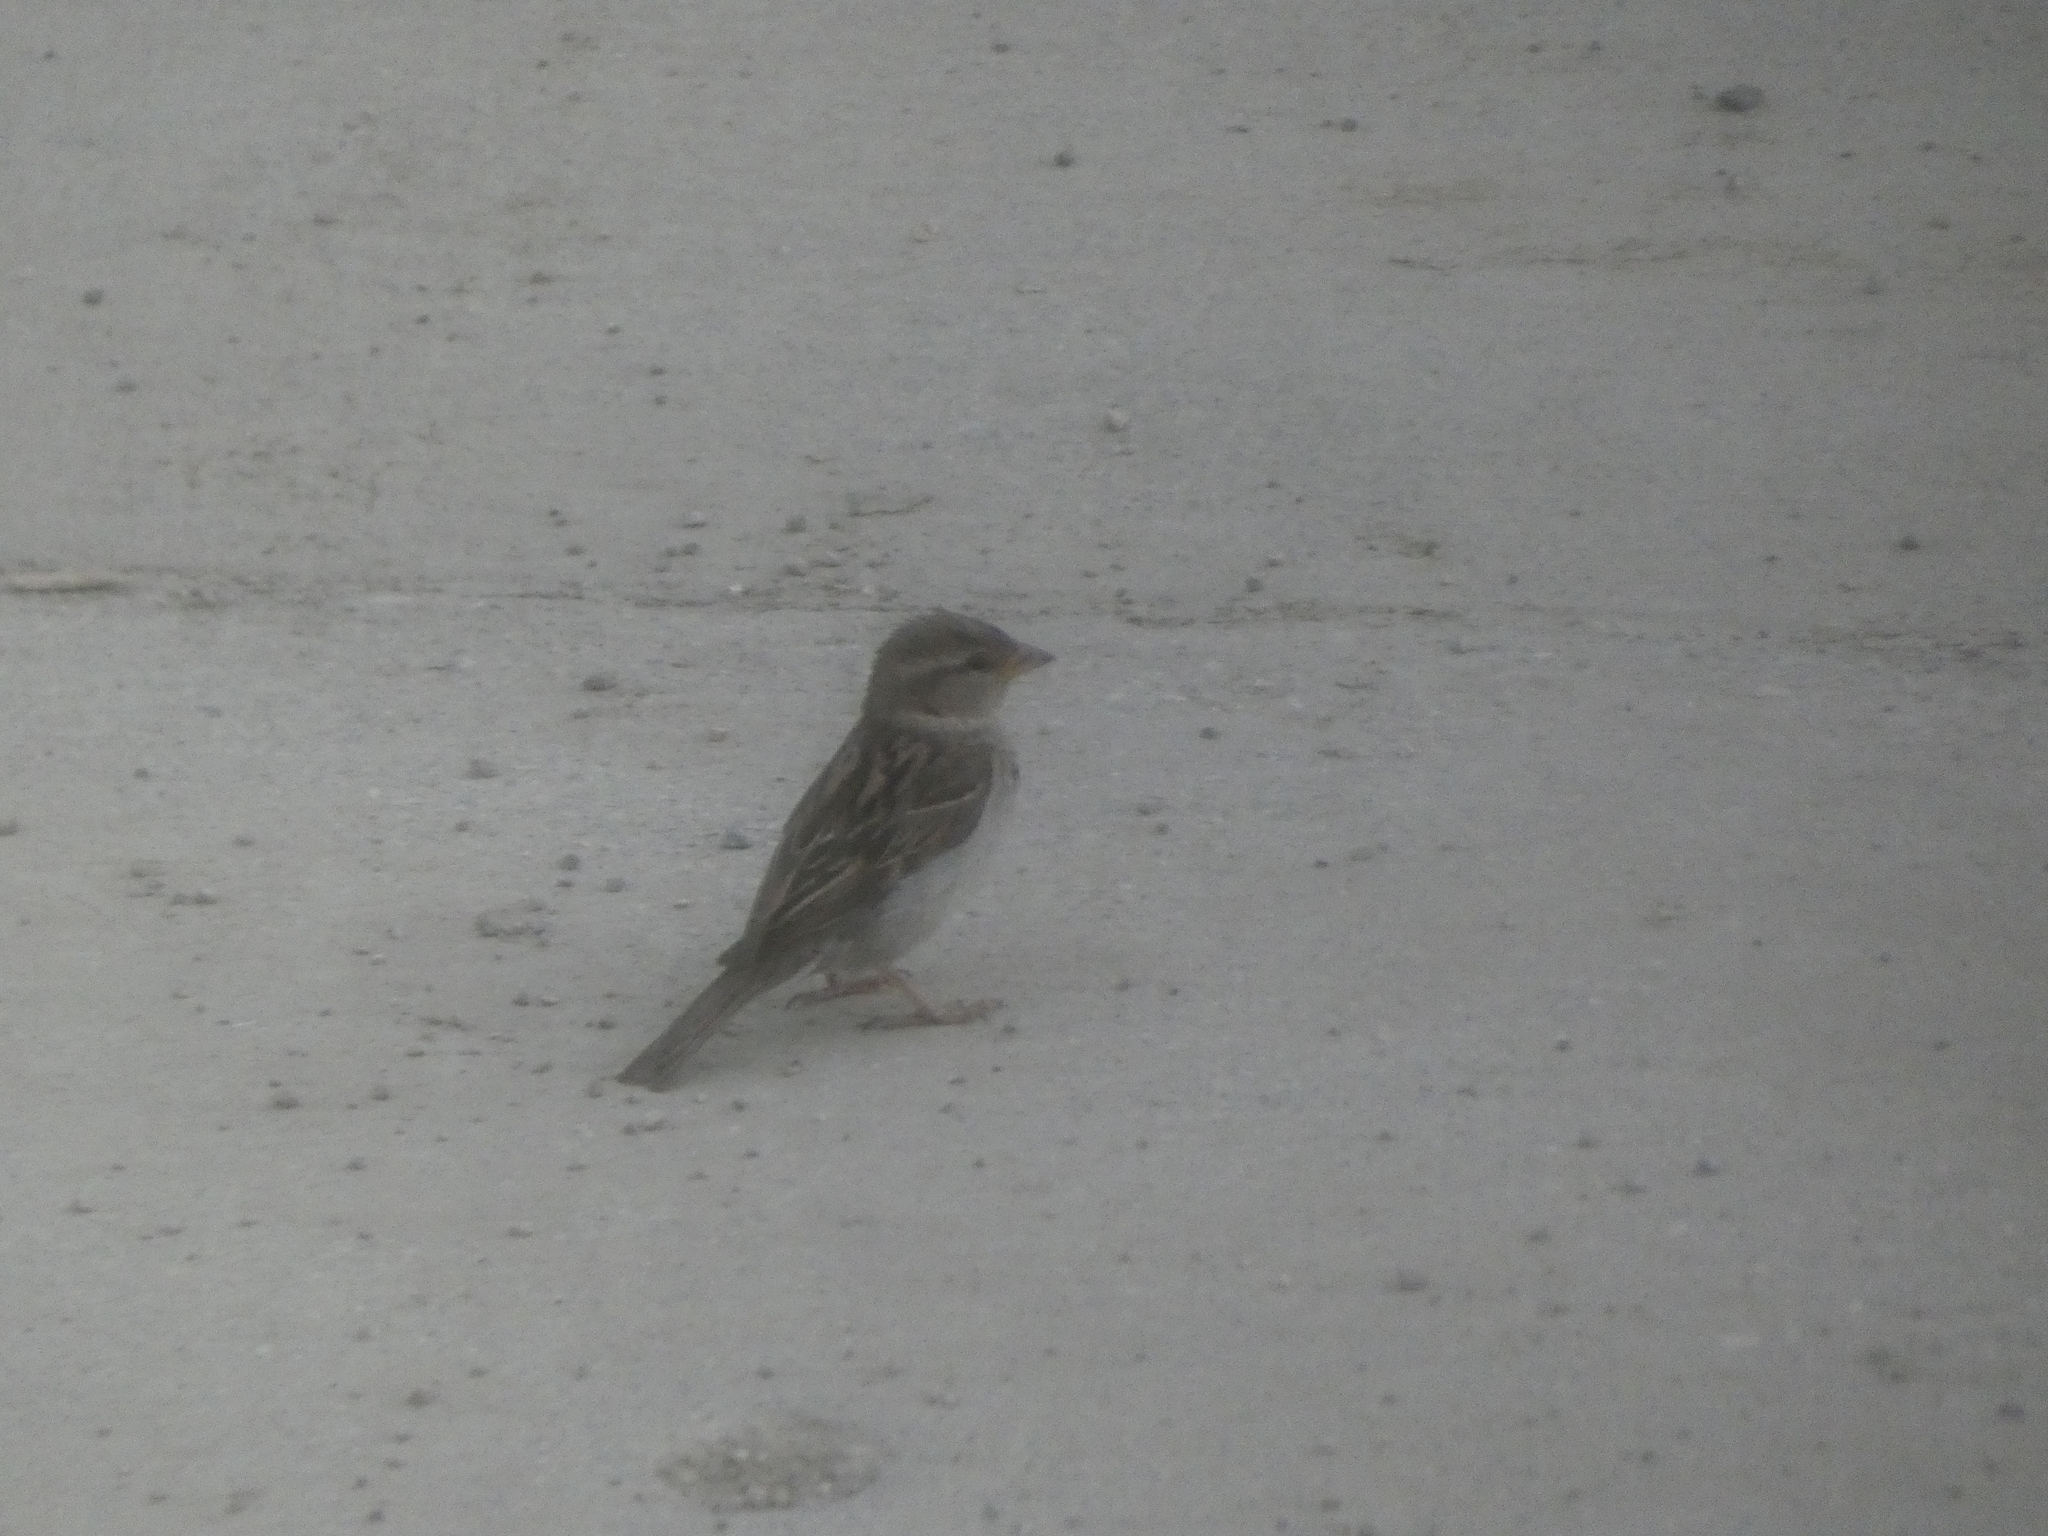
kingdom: Animalia
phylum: Chordata
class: Aves
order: Passeriformes
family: Passeridae
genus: Passer
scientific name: Passer domesticus
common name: House sparrow
